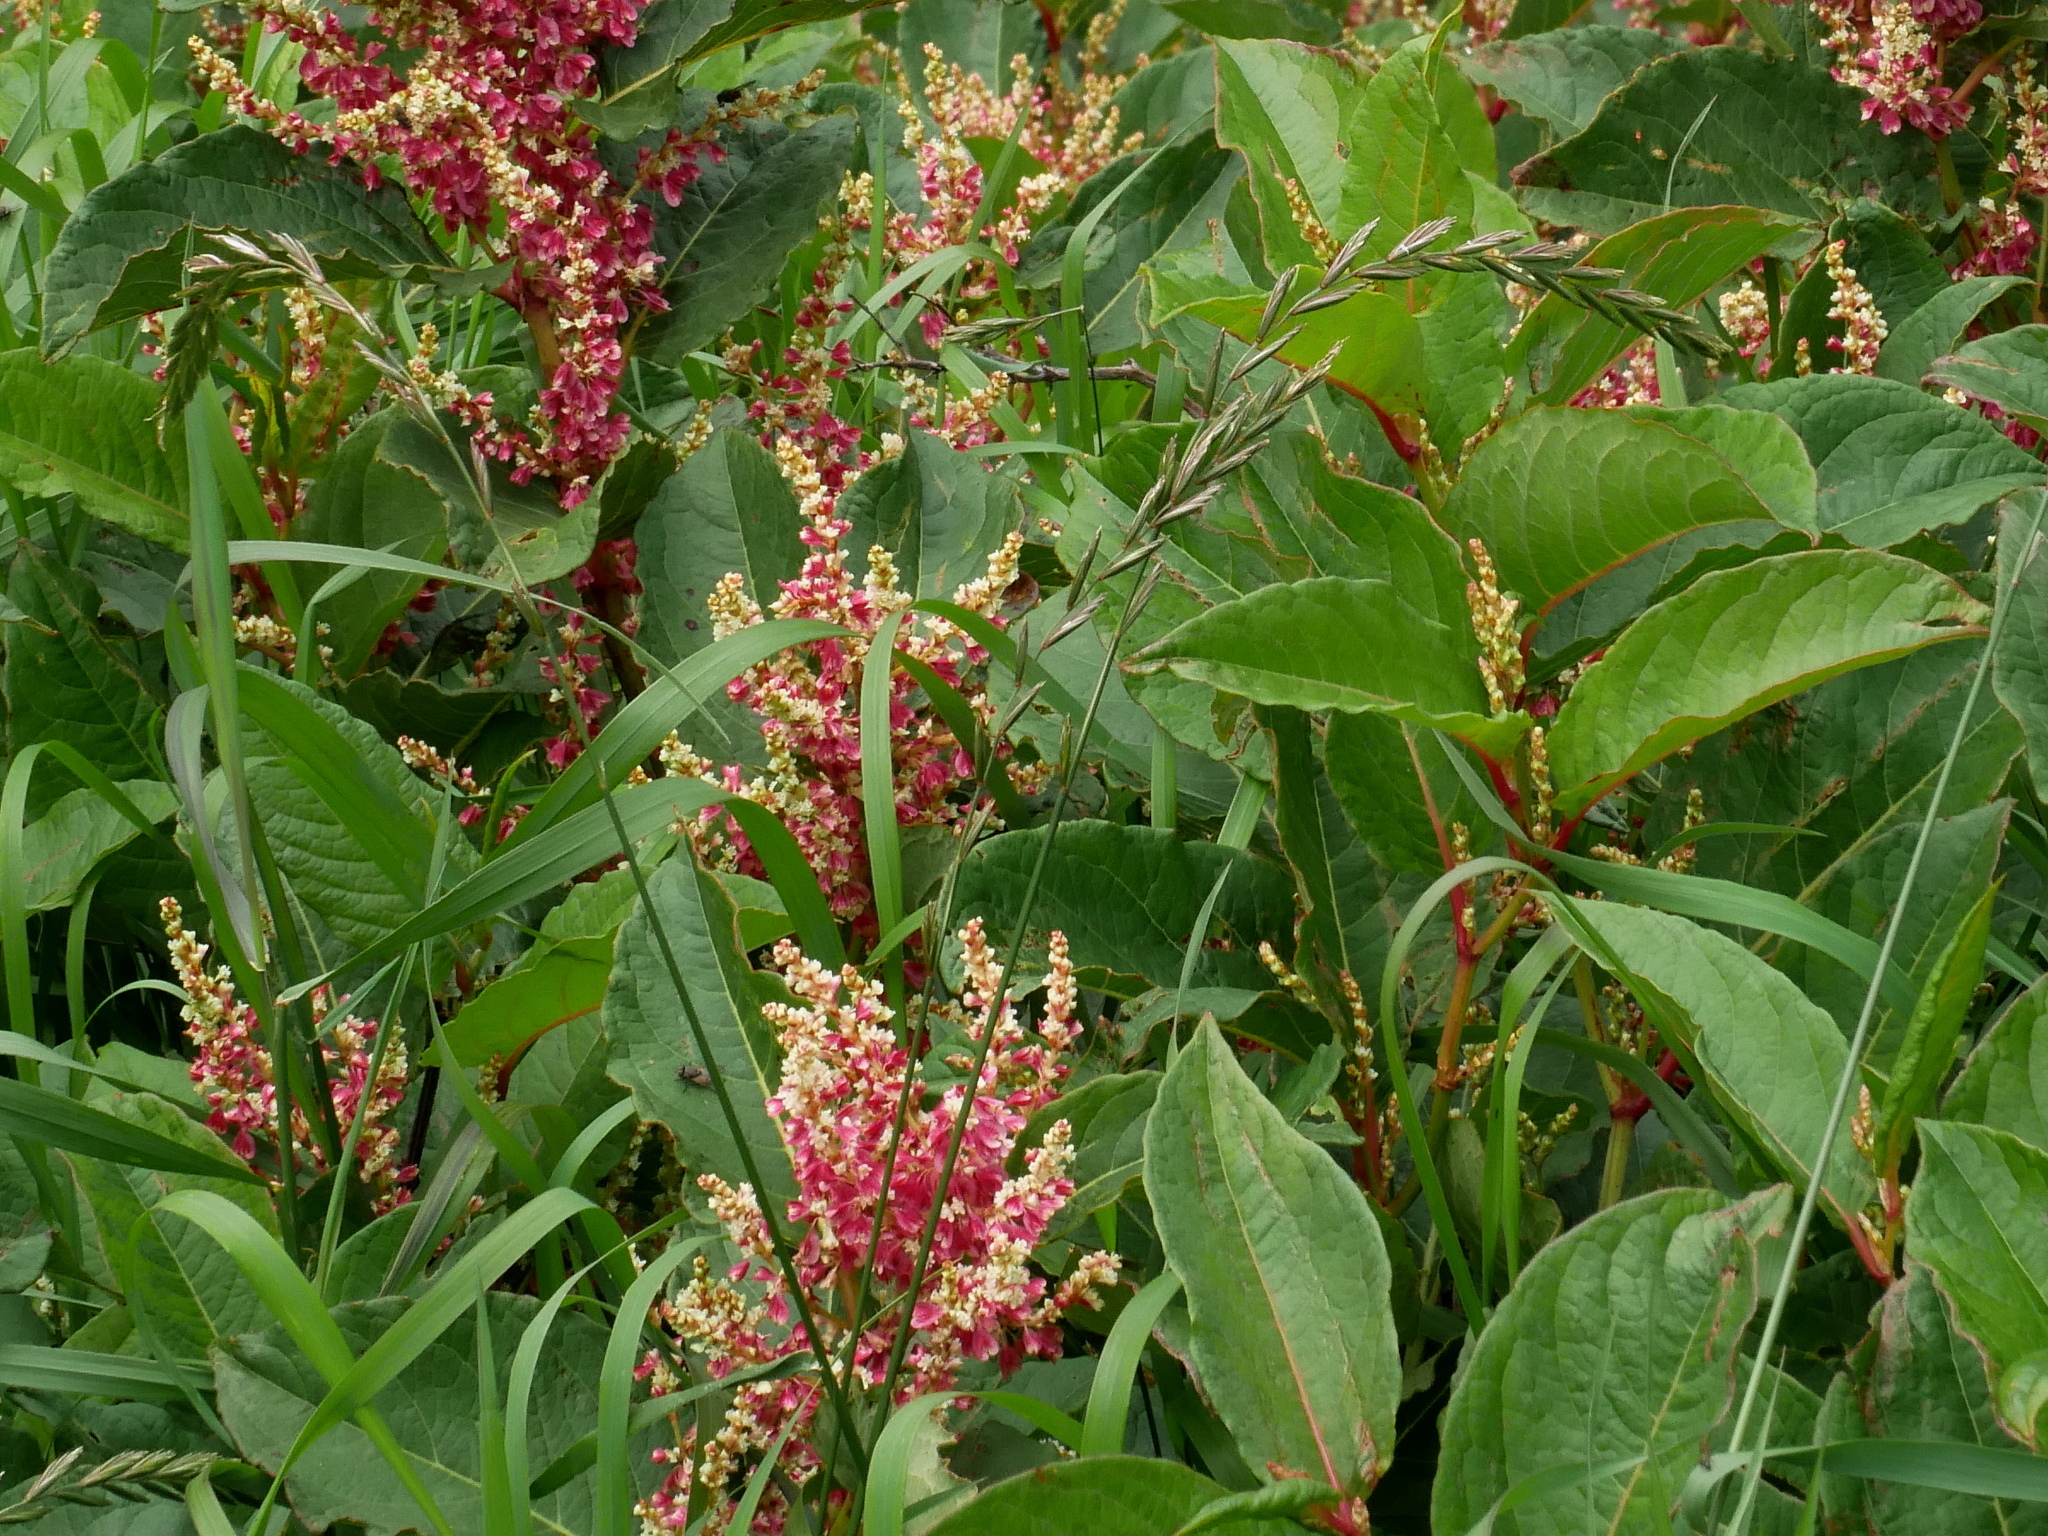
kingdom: Plantae
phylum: Tracheophyta
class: Liliopsida
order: Poales
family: Poaceae
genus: Elymus
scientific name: Elymus repens
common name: Quackgrass
